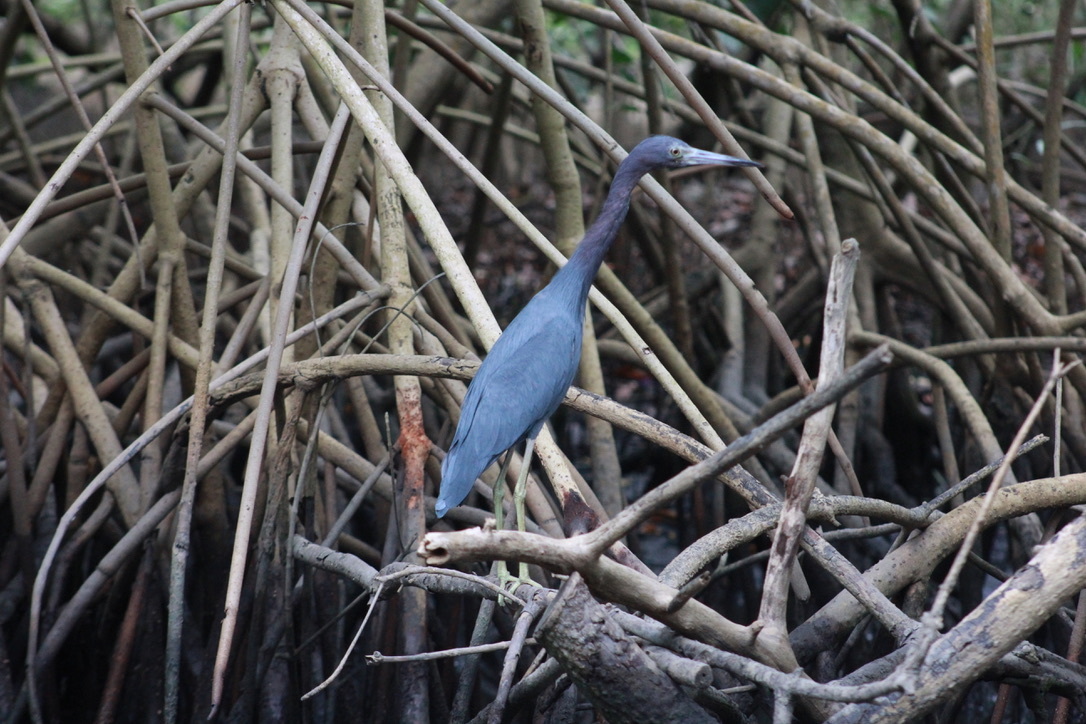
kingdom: Animalia
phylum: Chordata
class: Aves
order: Pelecaniformes
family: Ardeidae
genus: Egretta
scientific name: Egretta caerulea
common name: Little blue heron
